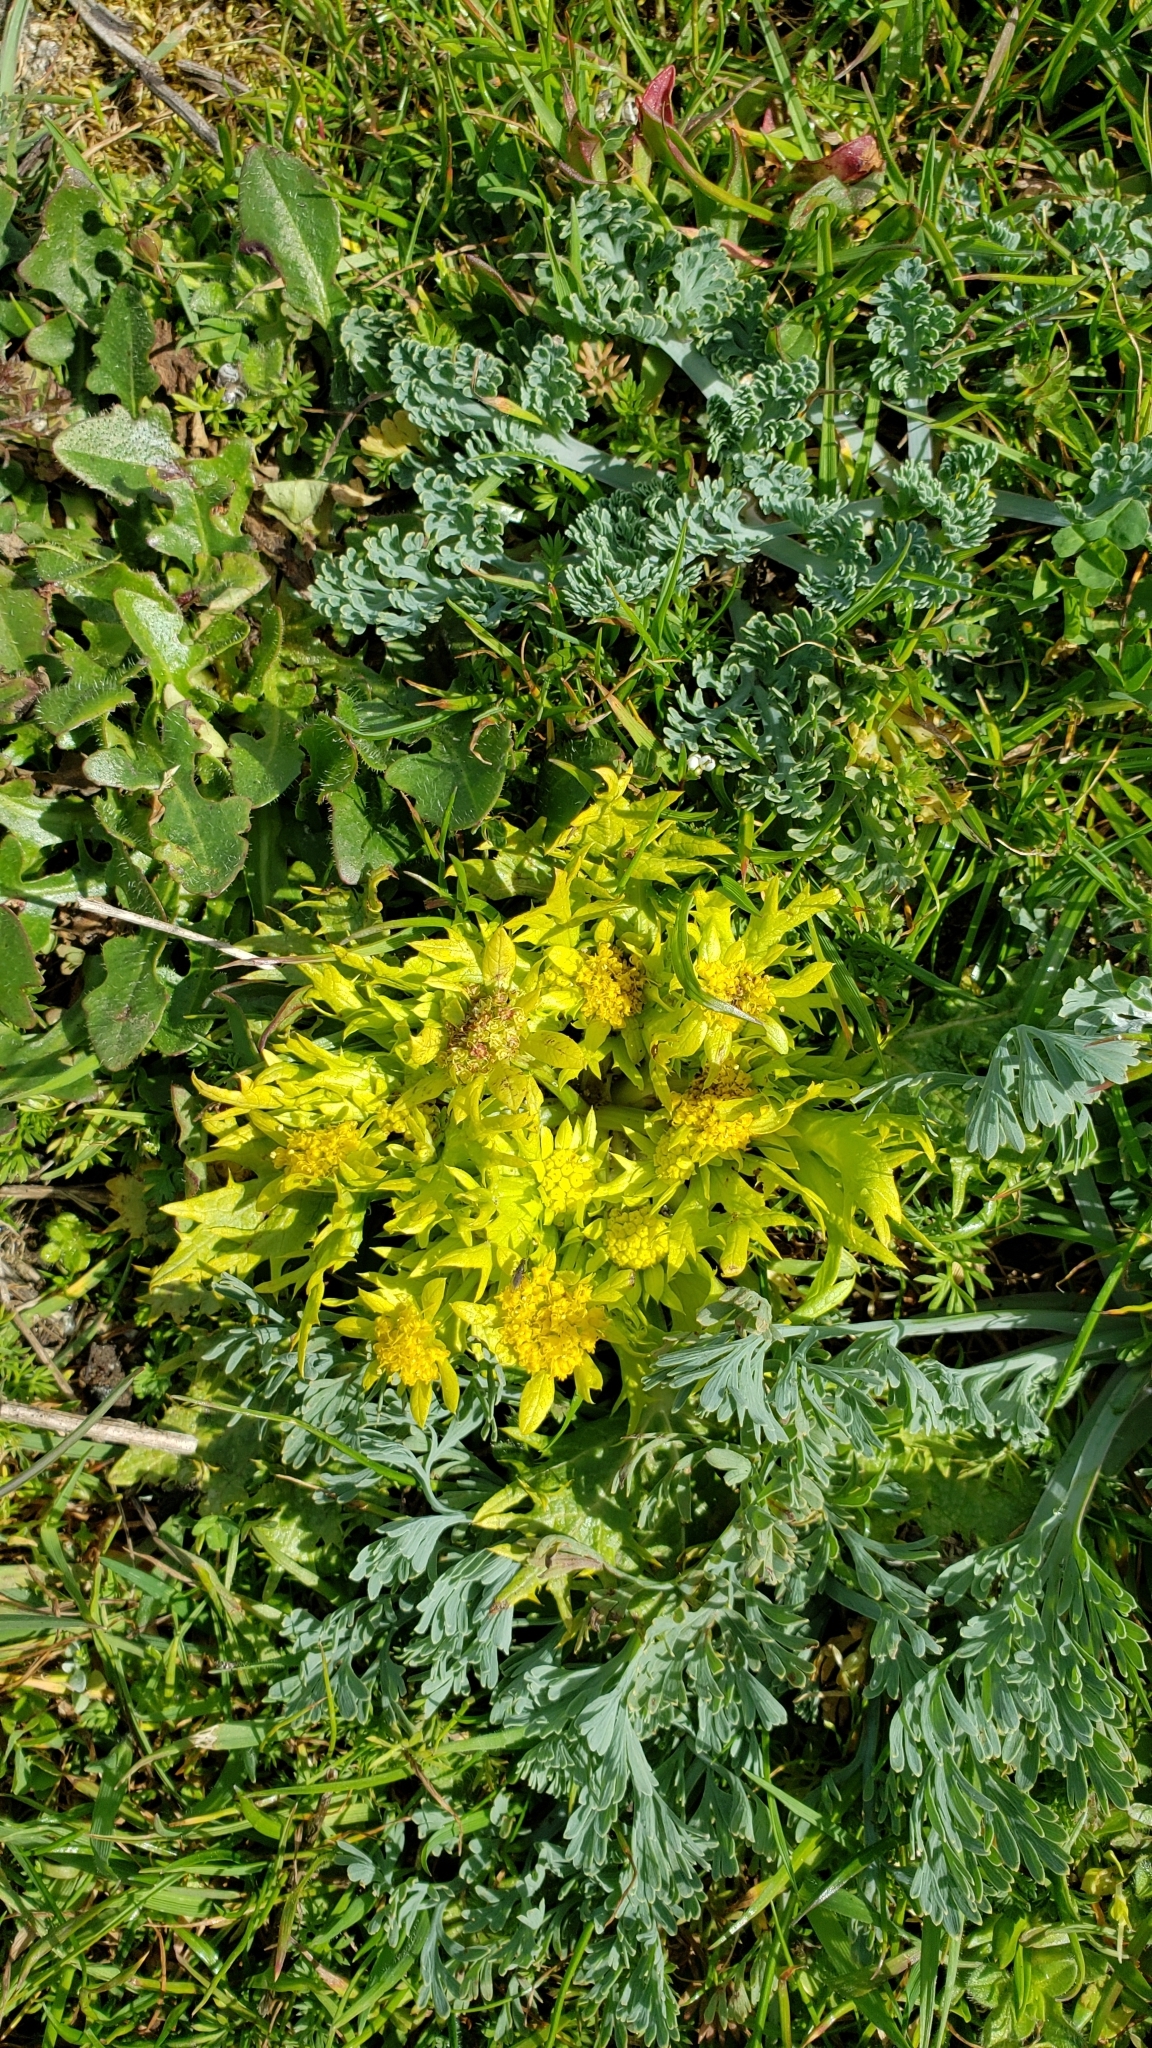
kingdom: Plantae
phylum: Tracheophyta
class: Magnoliopsida
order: Apiales
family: Apiaceae
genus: Sanicula
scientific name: Sanicula arctopoides
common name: Footsteps-of-spring
